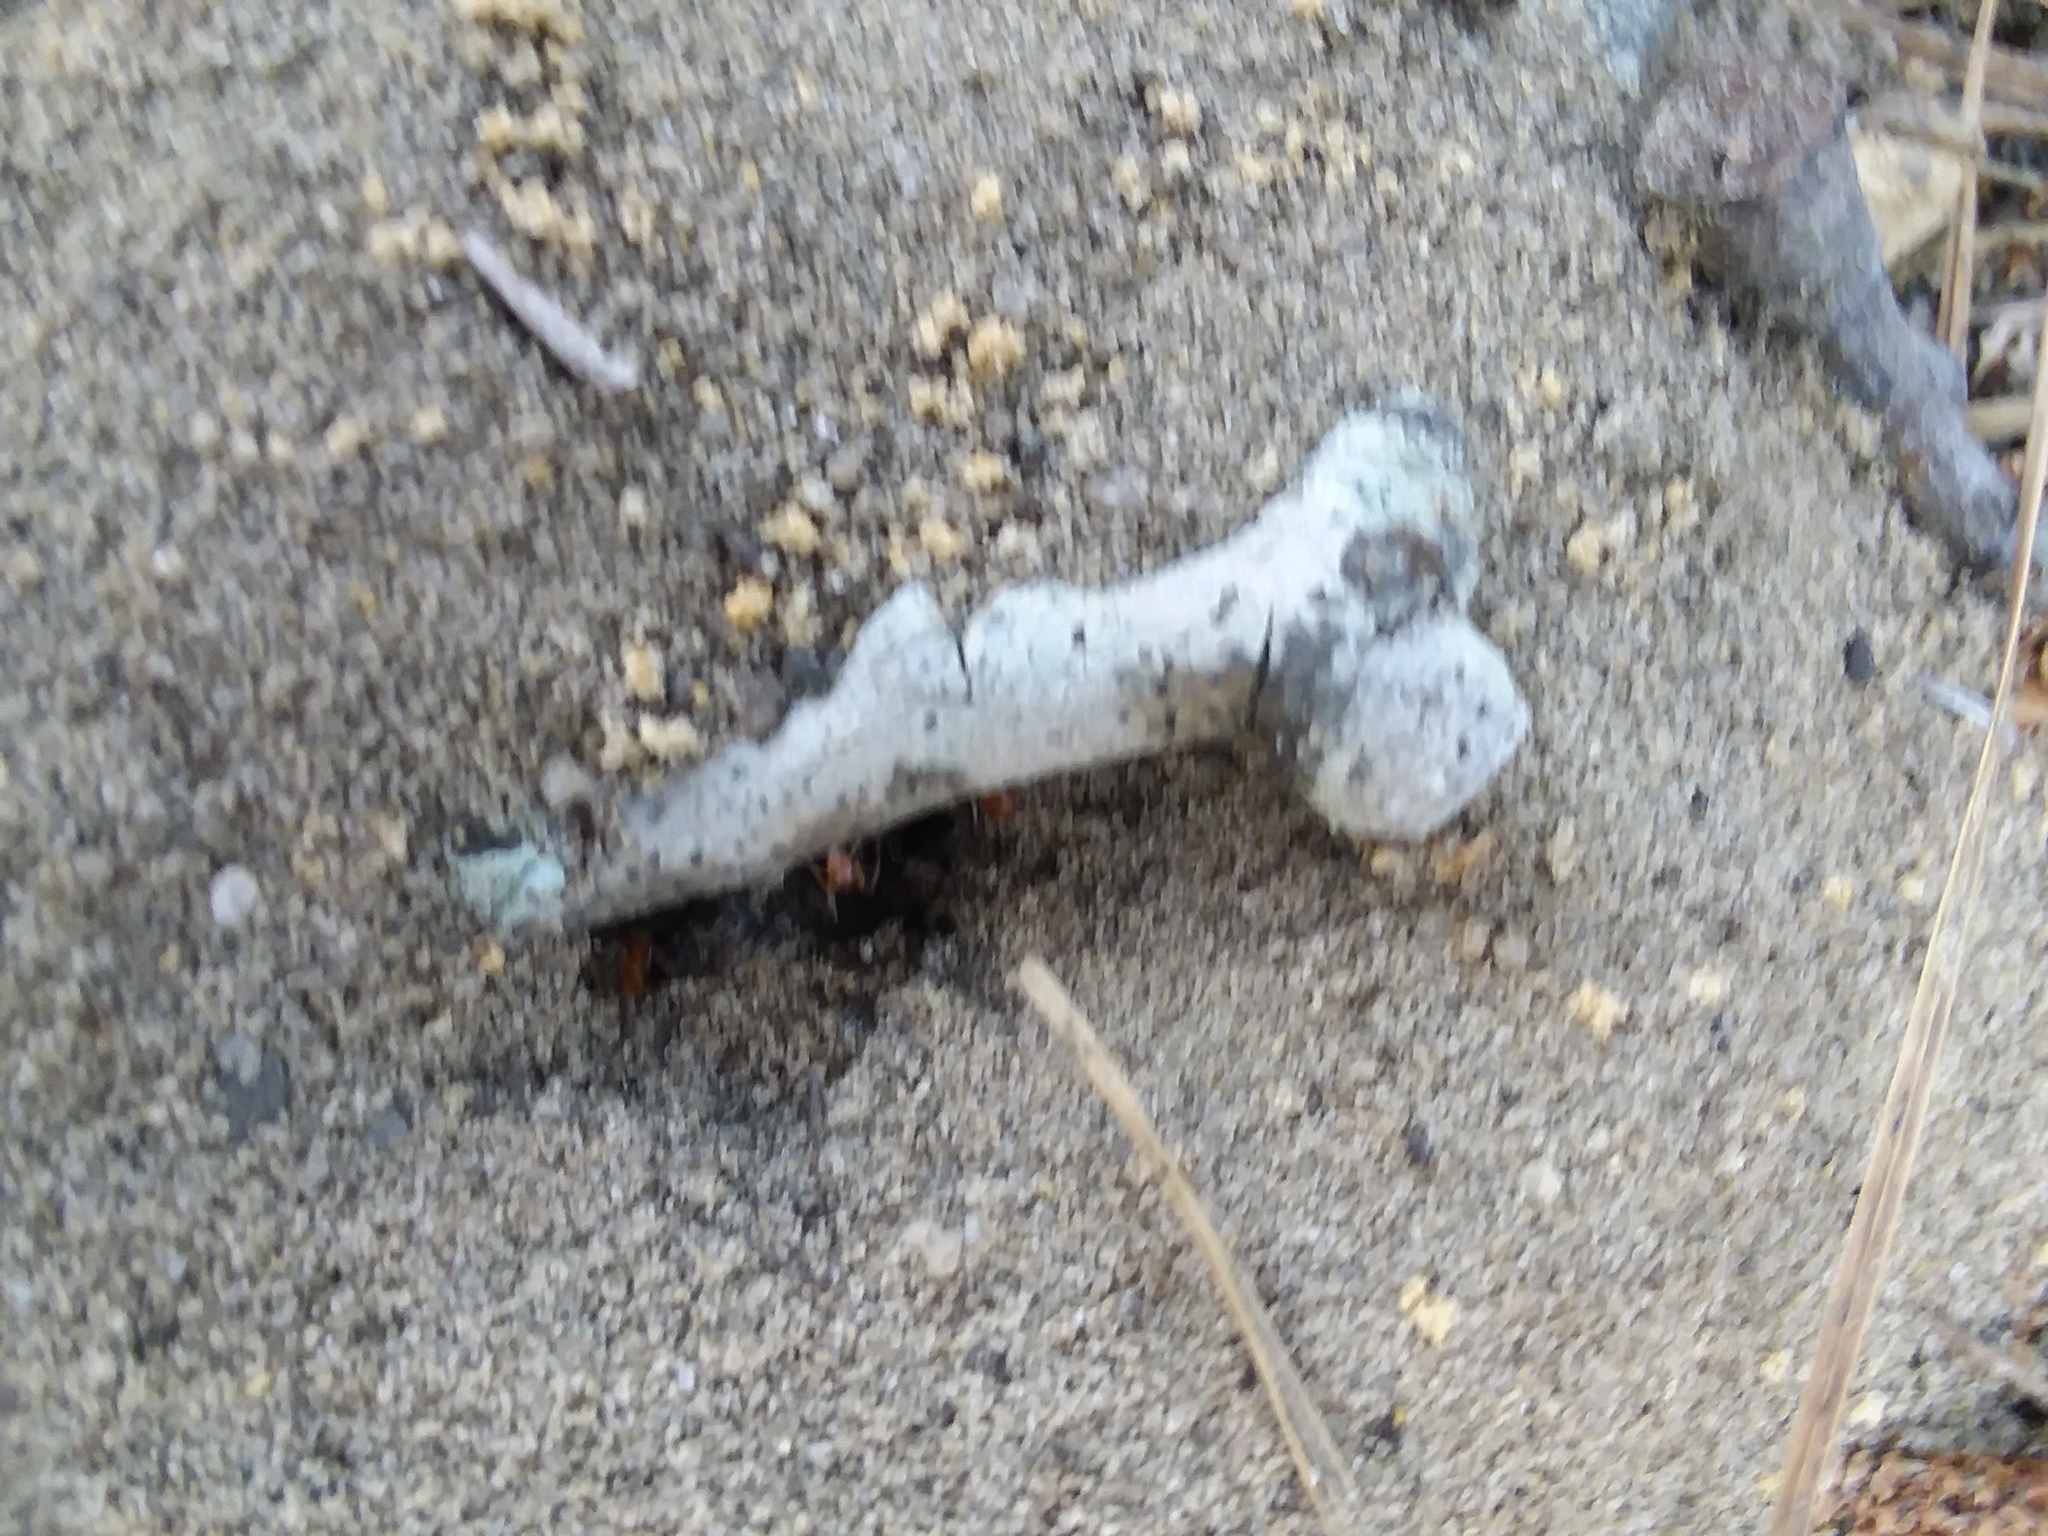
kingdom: Animalia
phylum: Arthropoda
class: Insecta
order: Hymenoptera
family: Formicidae
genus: Dorymyrmex
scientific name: Dorymyrmex bureni
